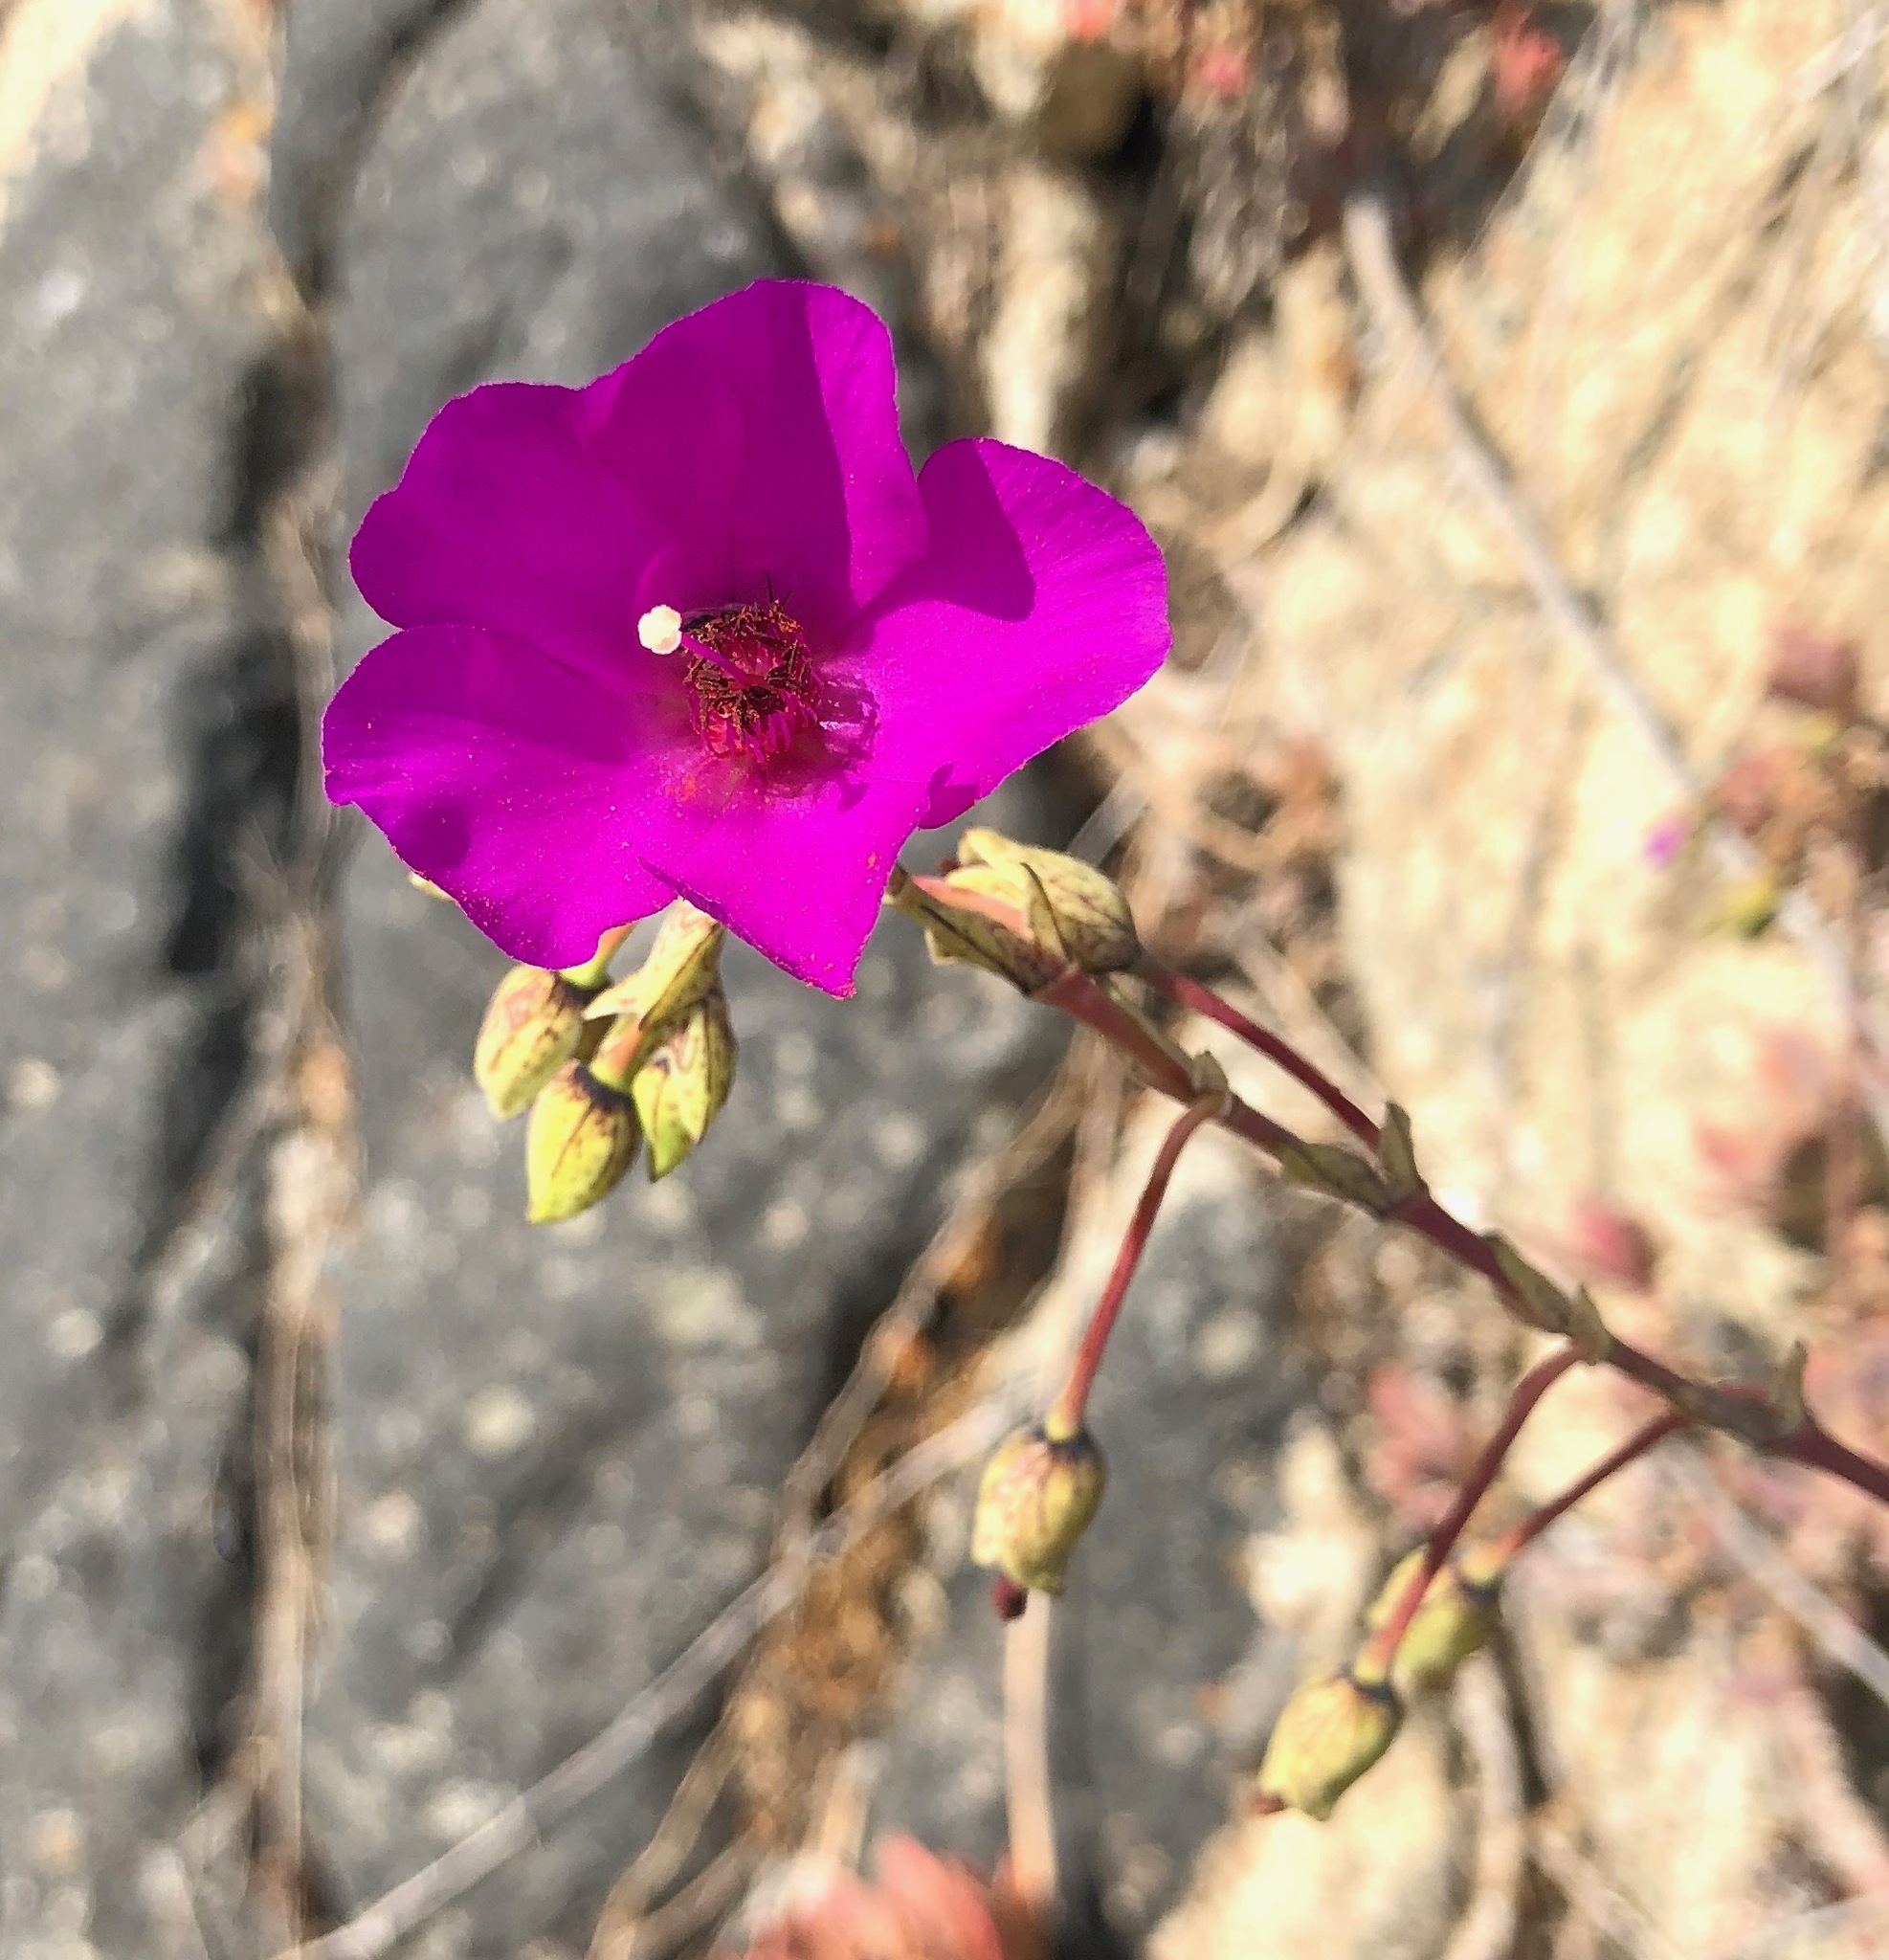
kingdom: Plantae
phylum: Tracheophyta
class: Magnoliopsida
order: Caryophyllales
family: Montiaceae
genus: Cistanthe
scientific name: Cistanthe grandiflora
